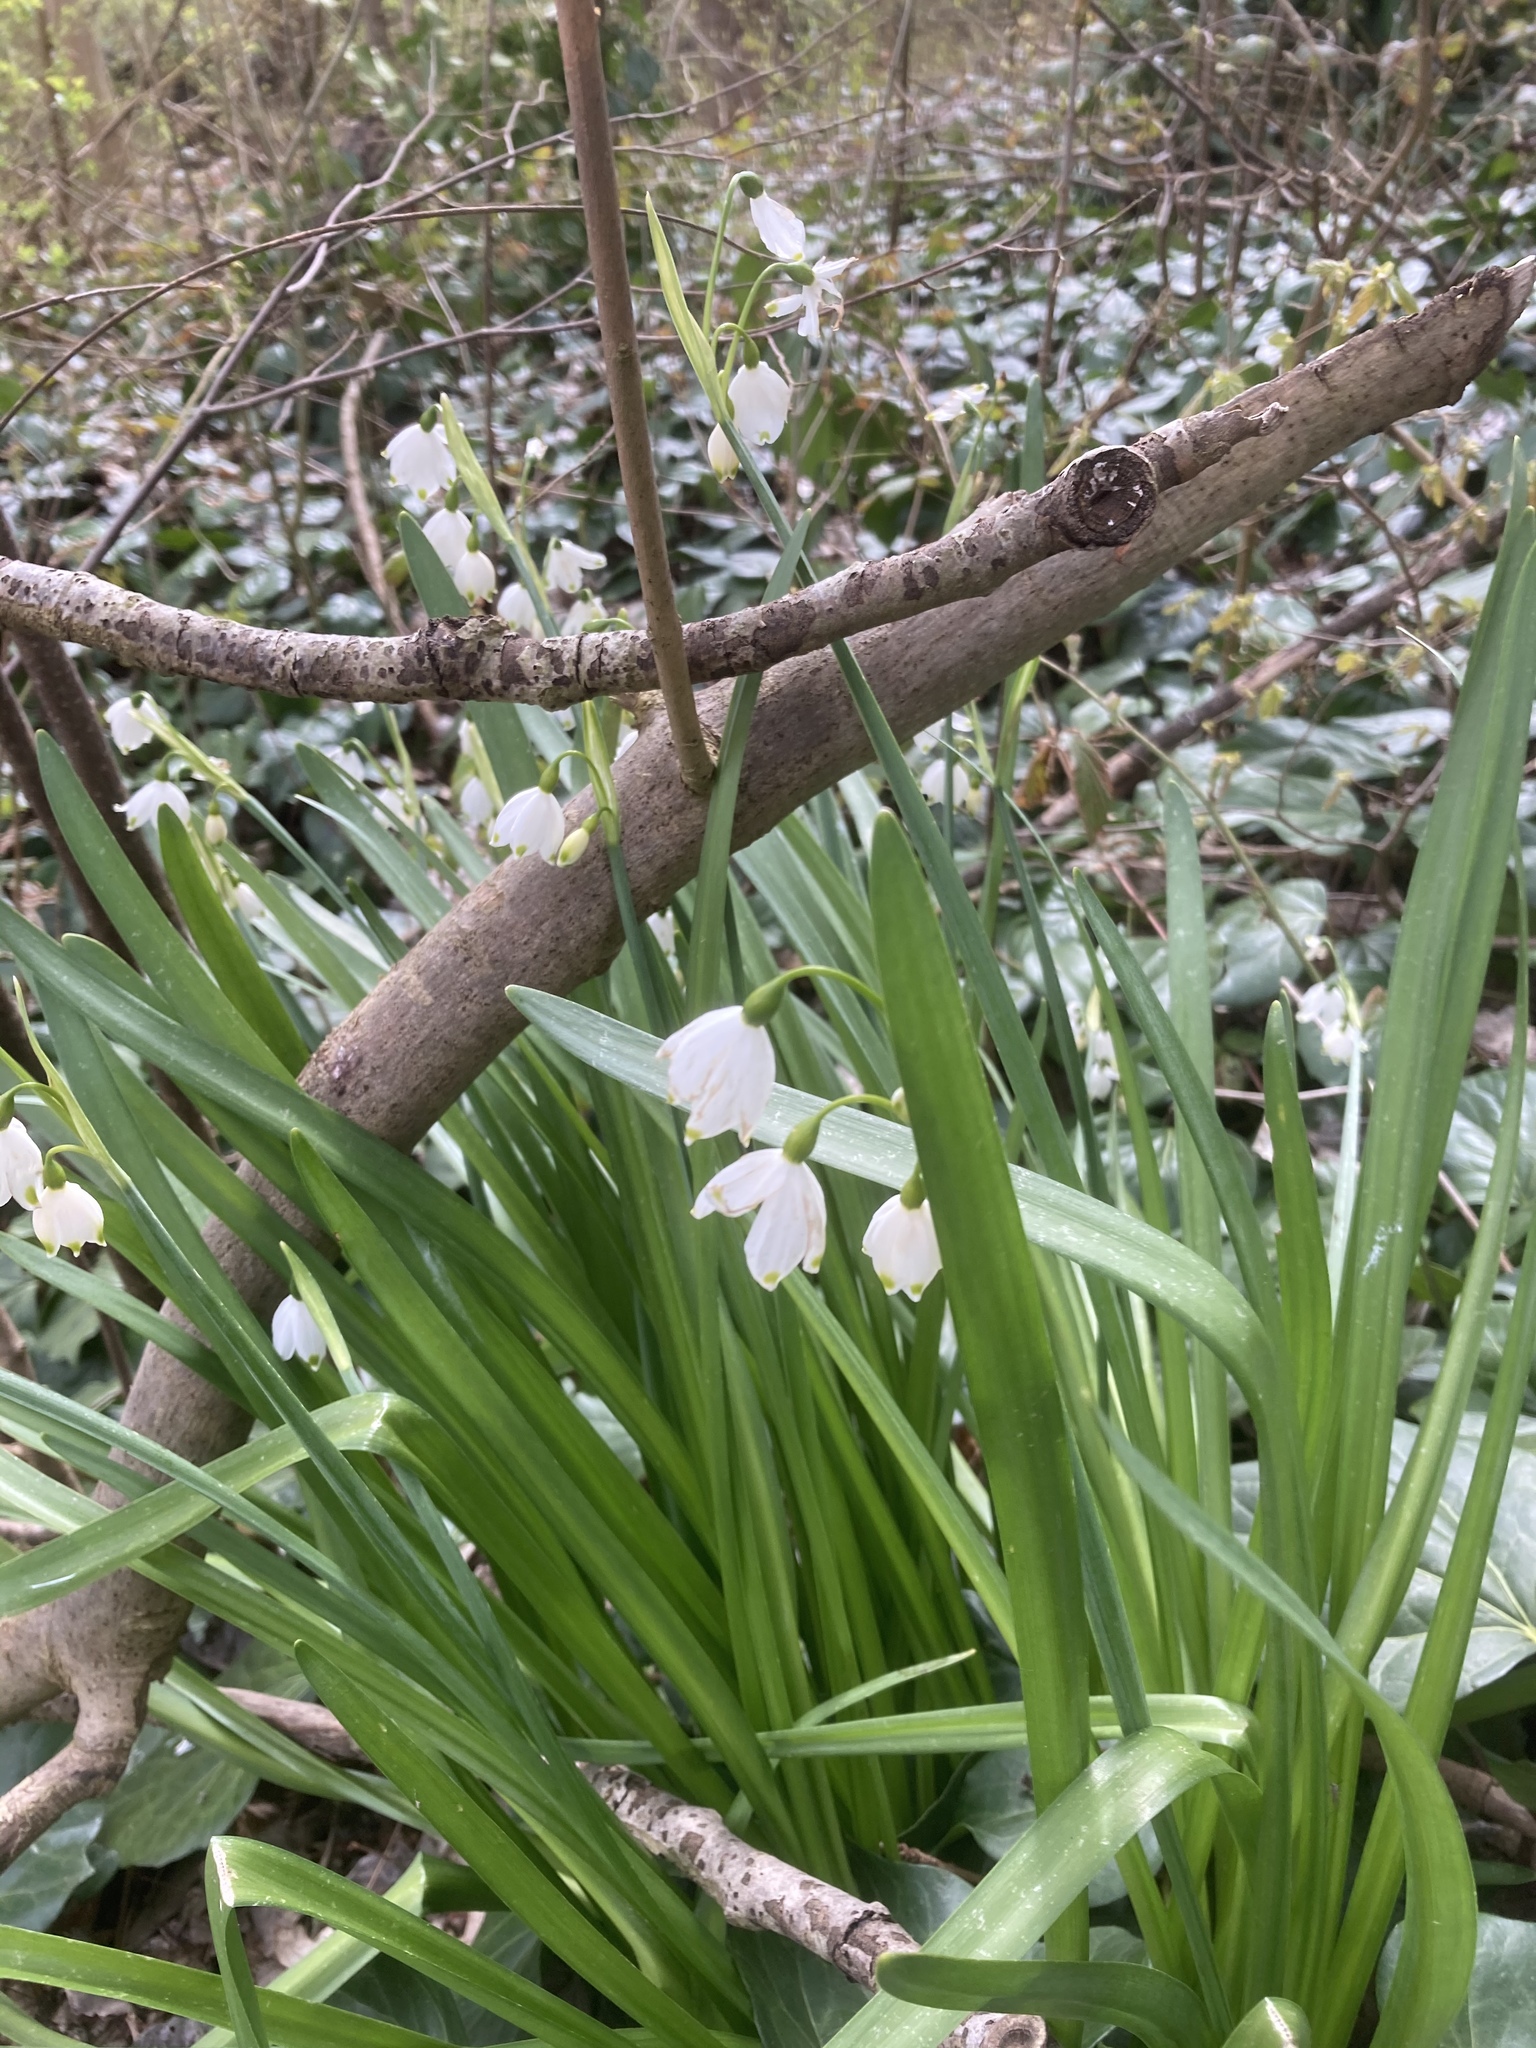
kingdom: Plantae
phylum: Tracheophyta
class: Liliopsida
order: Asparagales
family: Amaryllidaceae
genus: Leucojum
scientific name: Leucojum aestivum
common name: Summer snowflake
